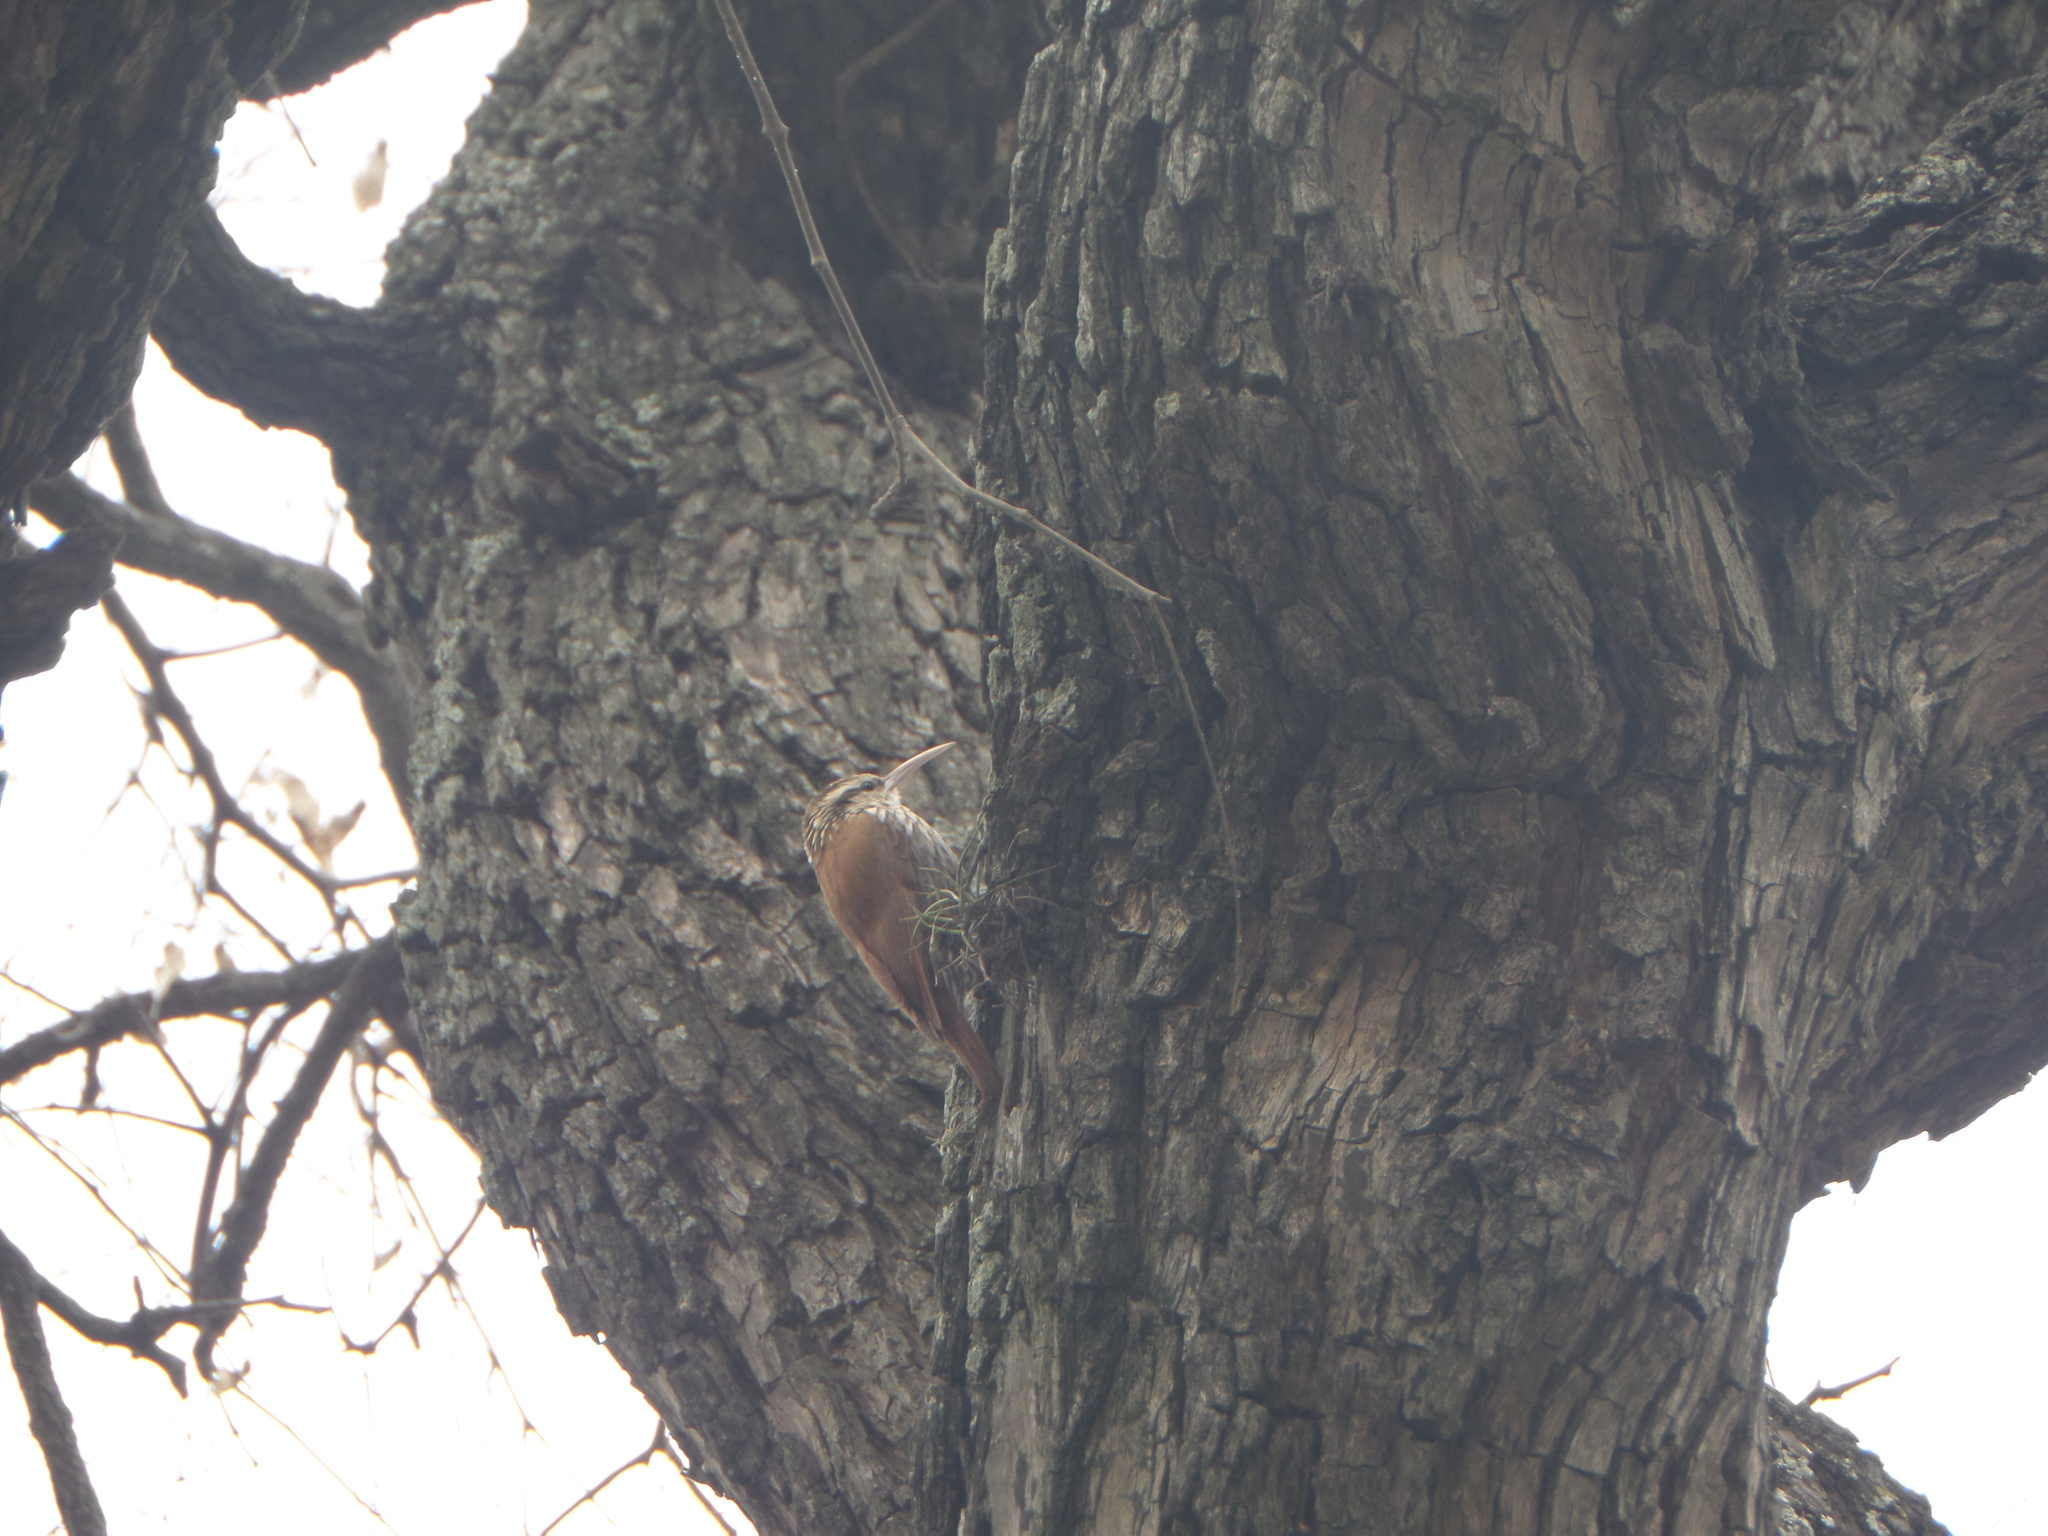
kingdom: Animalia
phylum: Chordata
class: Aves
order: Passeriformes
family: Furnariidae
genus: Lepidocolaptes
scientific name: Lepidocolaptes angustirostris
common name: Narrow-billed woodcreeper
